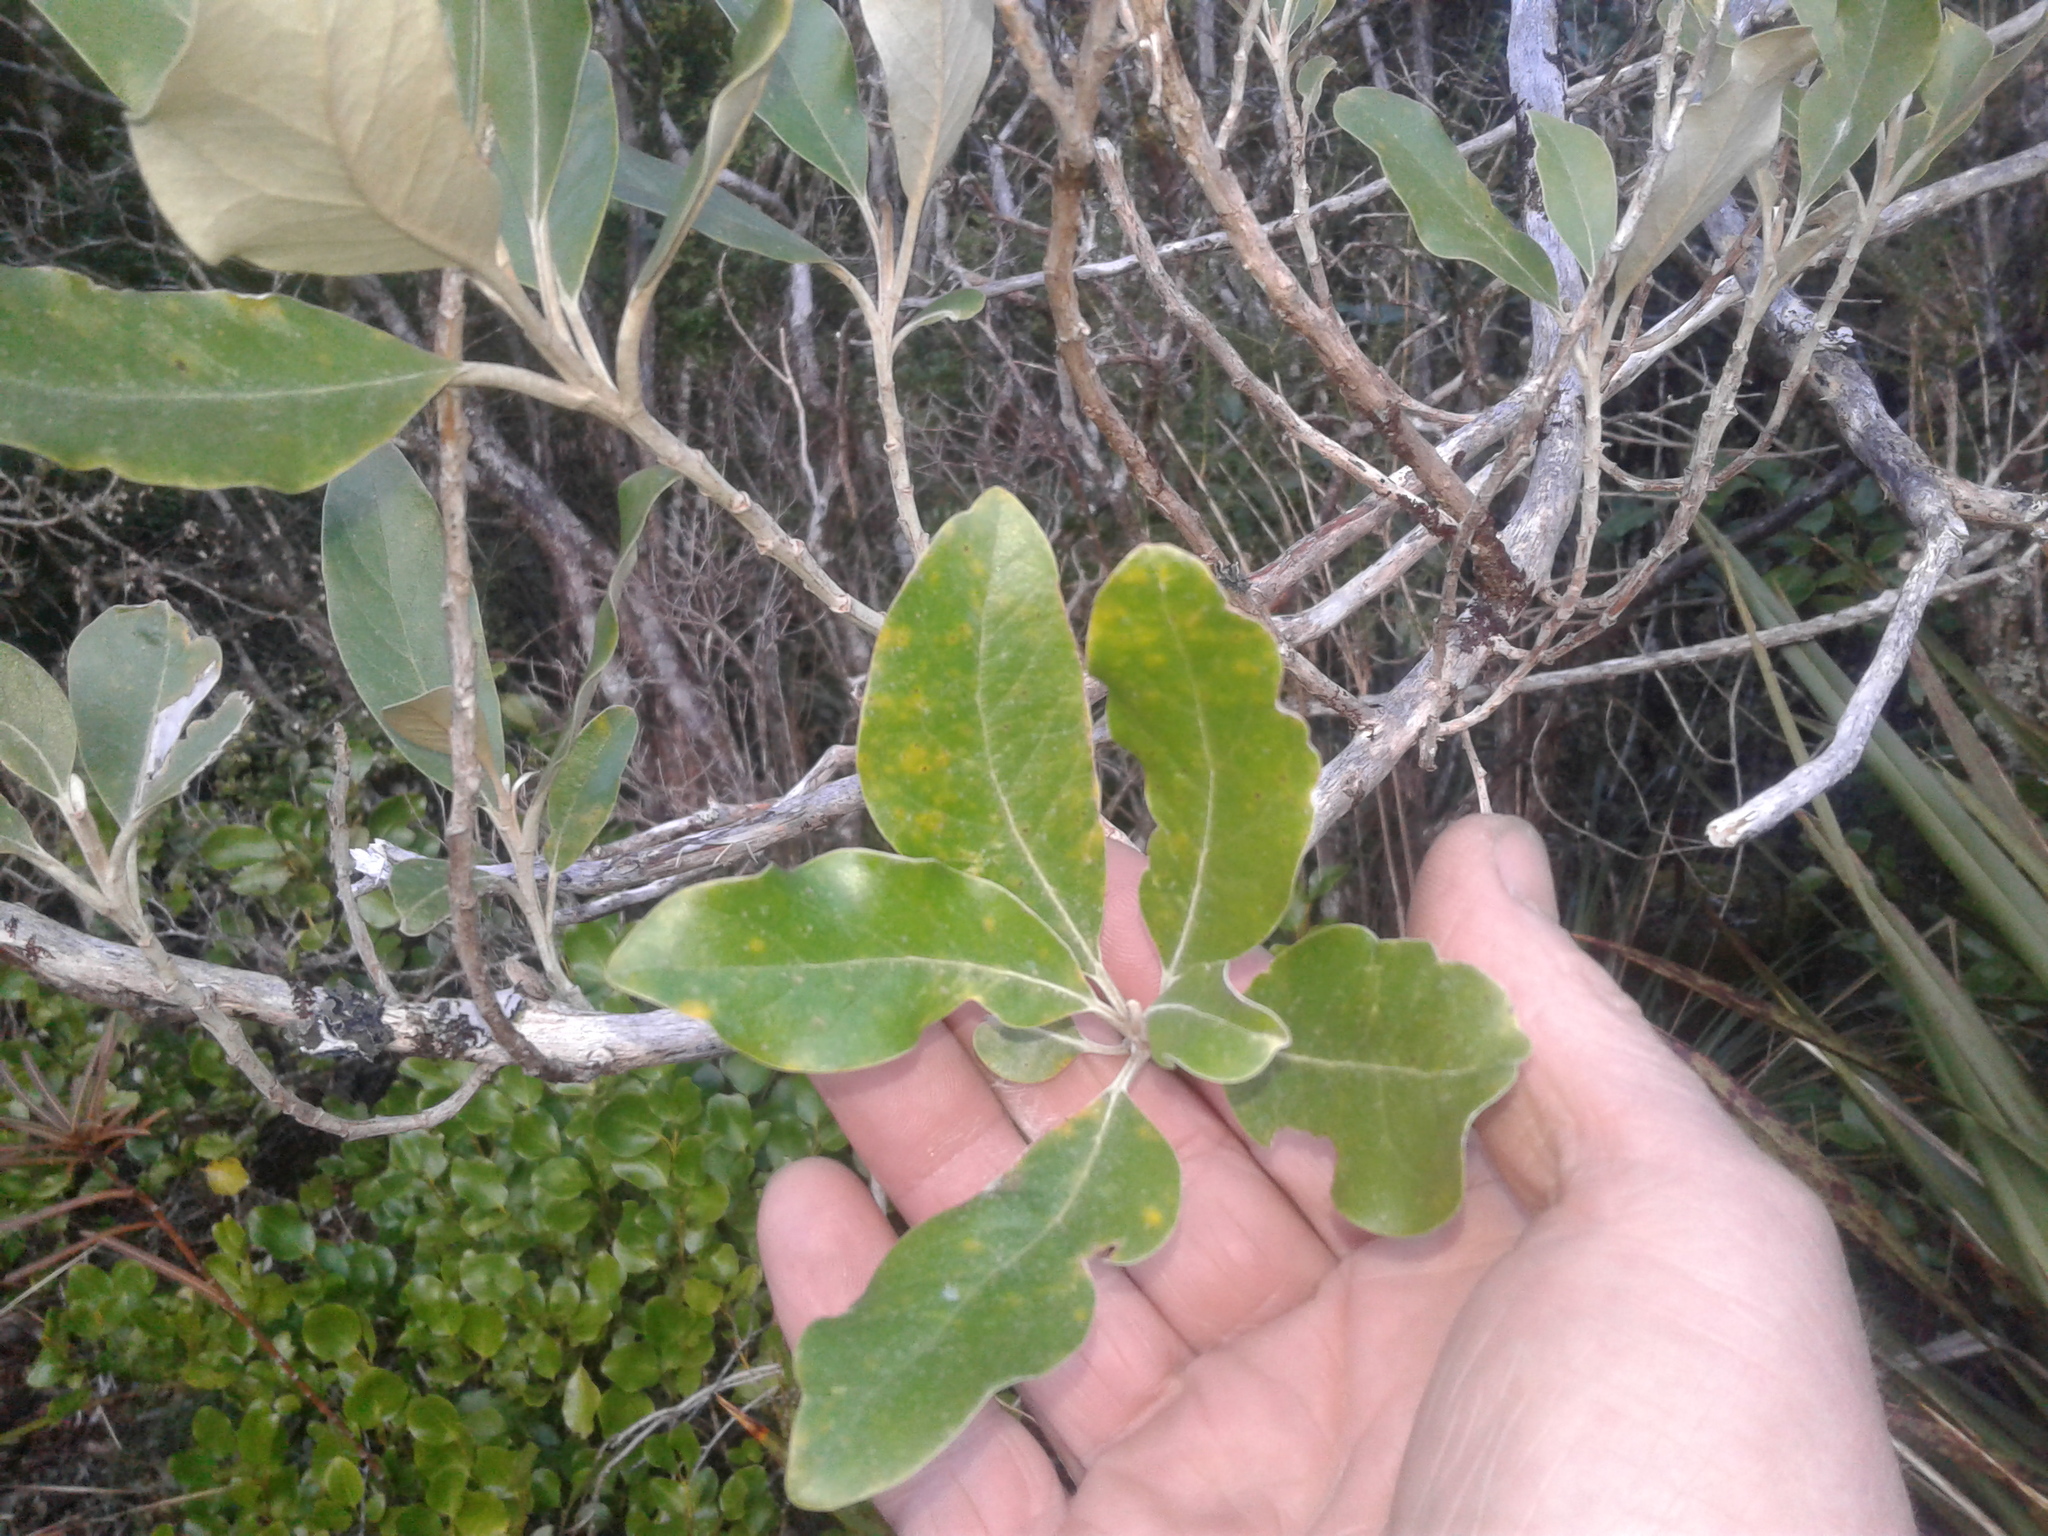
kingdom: Plantae
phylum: Tracheophyta
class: Magnoliopsida
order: Asterales
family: Asteraceae
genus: Olearia
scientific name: Olearia avicenniifolia
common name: Mangrove-leaf daisybush
